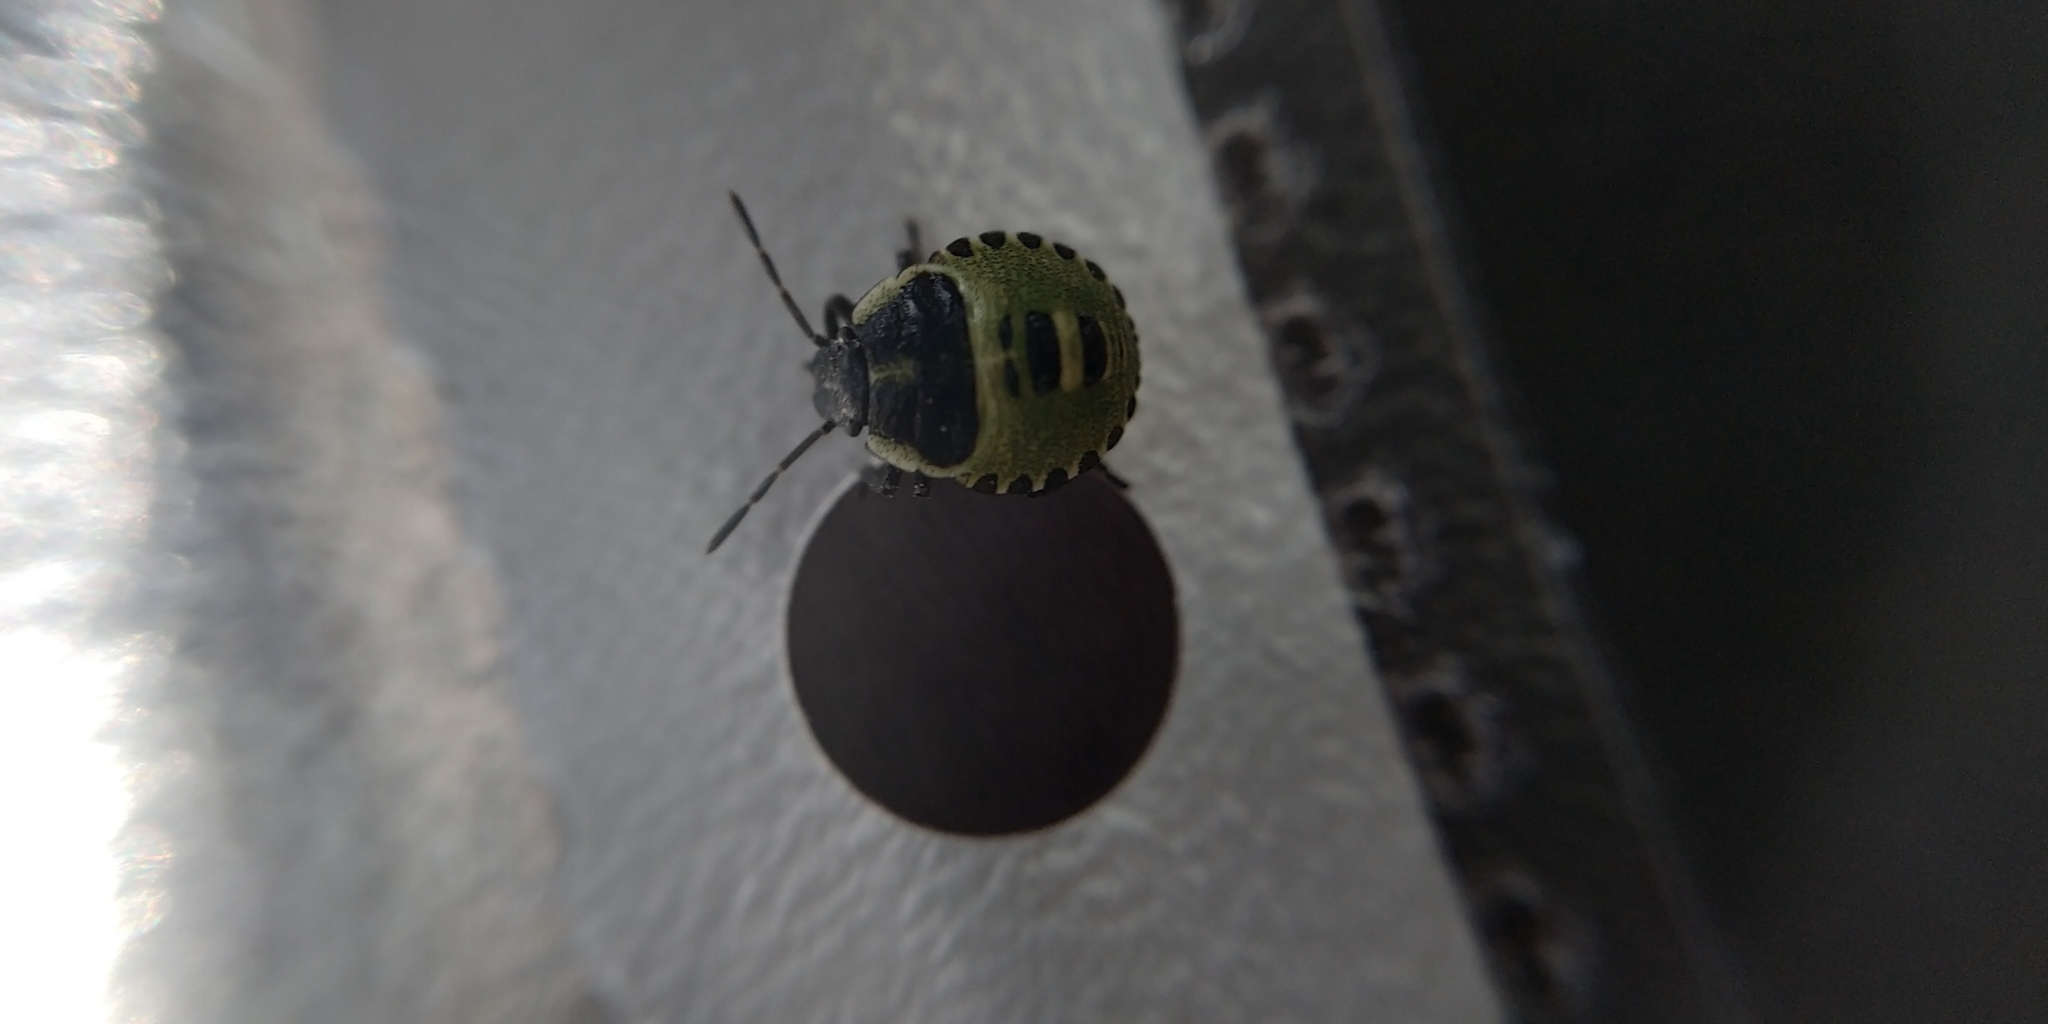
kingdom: Animalia
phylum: Arthropoda
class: Insecta
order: Hemiptera
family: Pentatomidae
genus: Palomena
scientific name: Palomena prasina
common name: Green shieldbug
